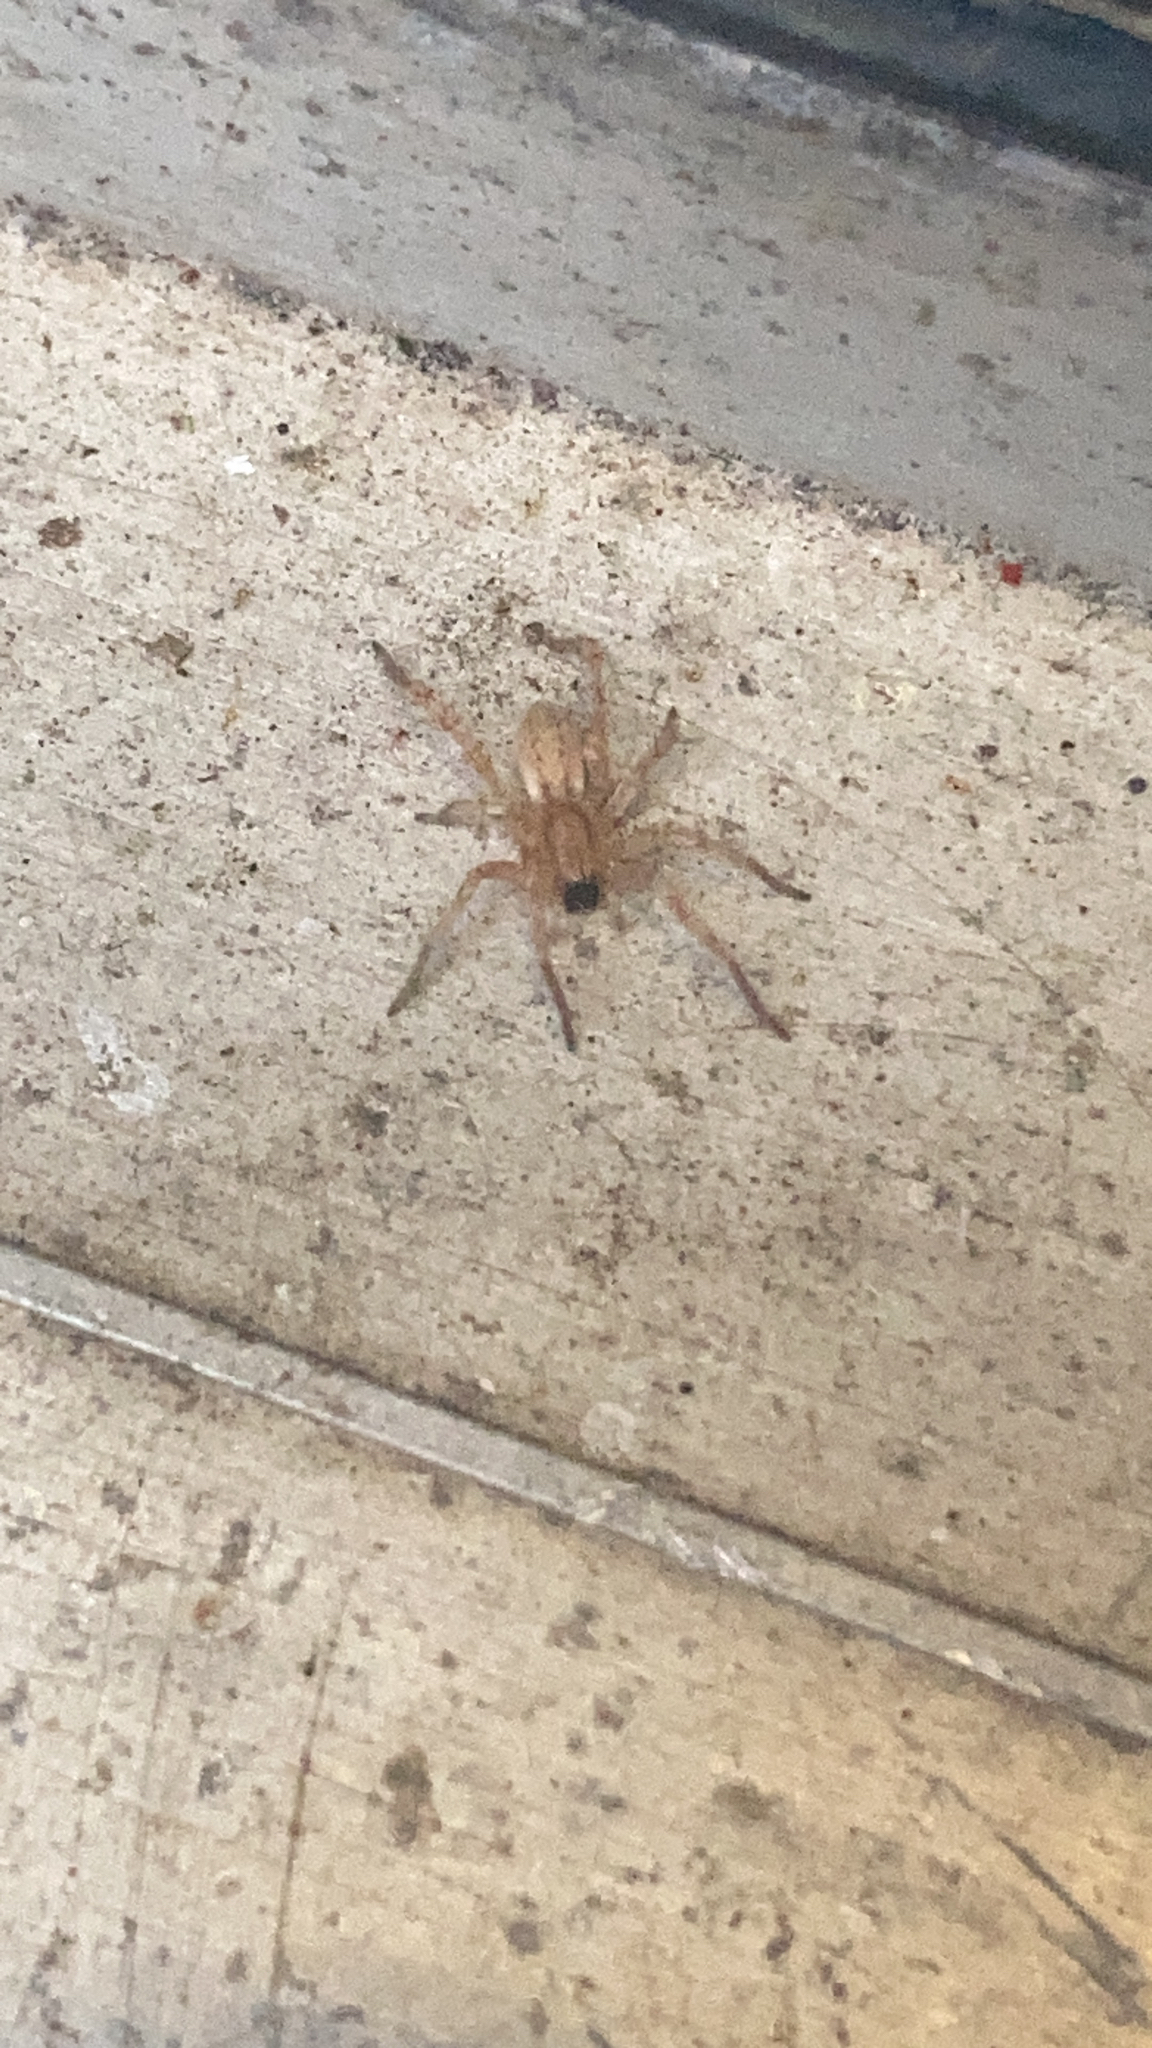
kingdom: Animalia
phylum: Arthropoda
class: Arachnida
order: Araneae
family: Anyphaenidae
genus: Hibana
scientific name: Hibana gracilis
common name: Garden ghost spider
